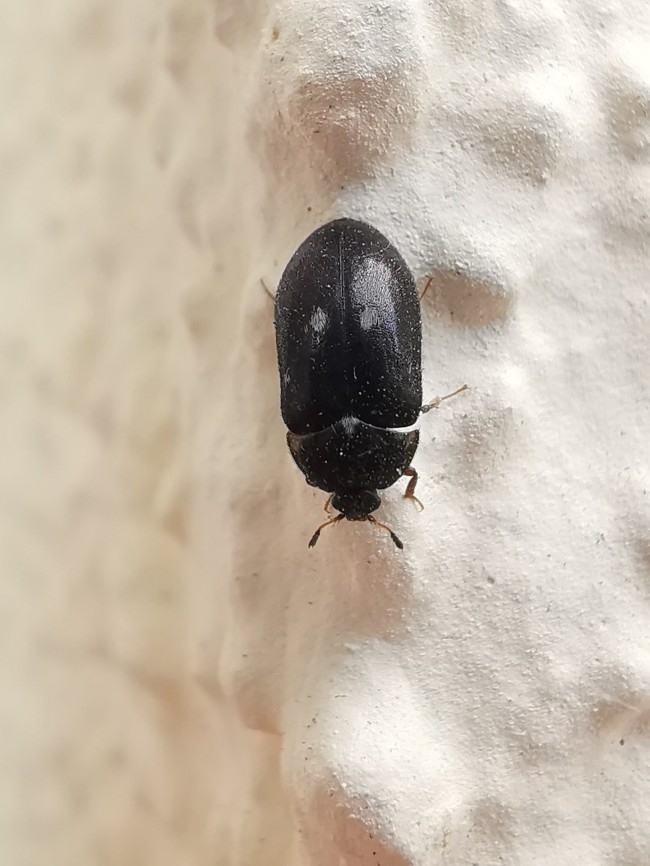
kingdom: Animalia
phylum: Arthropoda
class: Insecta
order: Coleoptera
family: Dermestidae
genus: Attagenus
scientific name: Attagenus pellio
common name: Two-spotted carpet beetle
